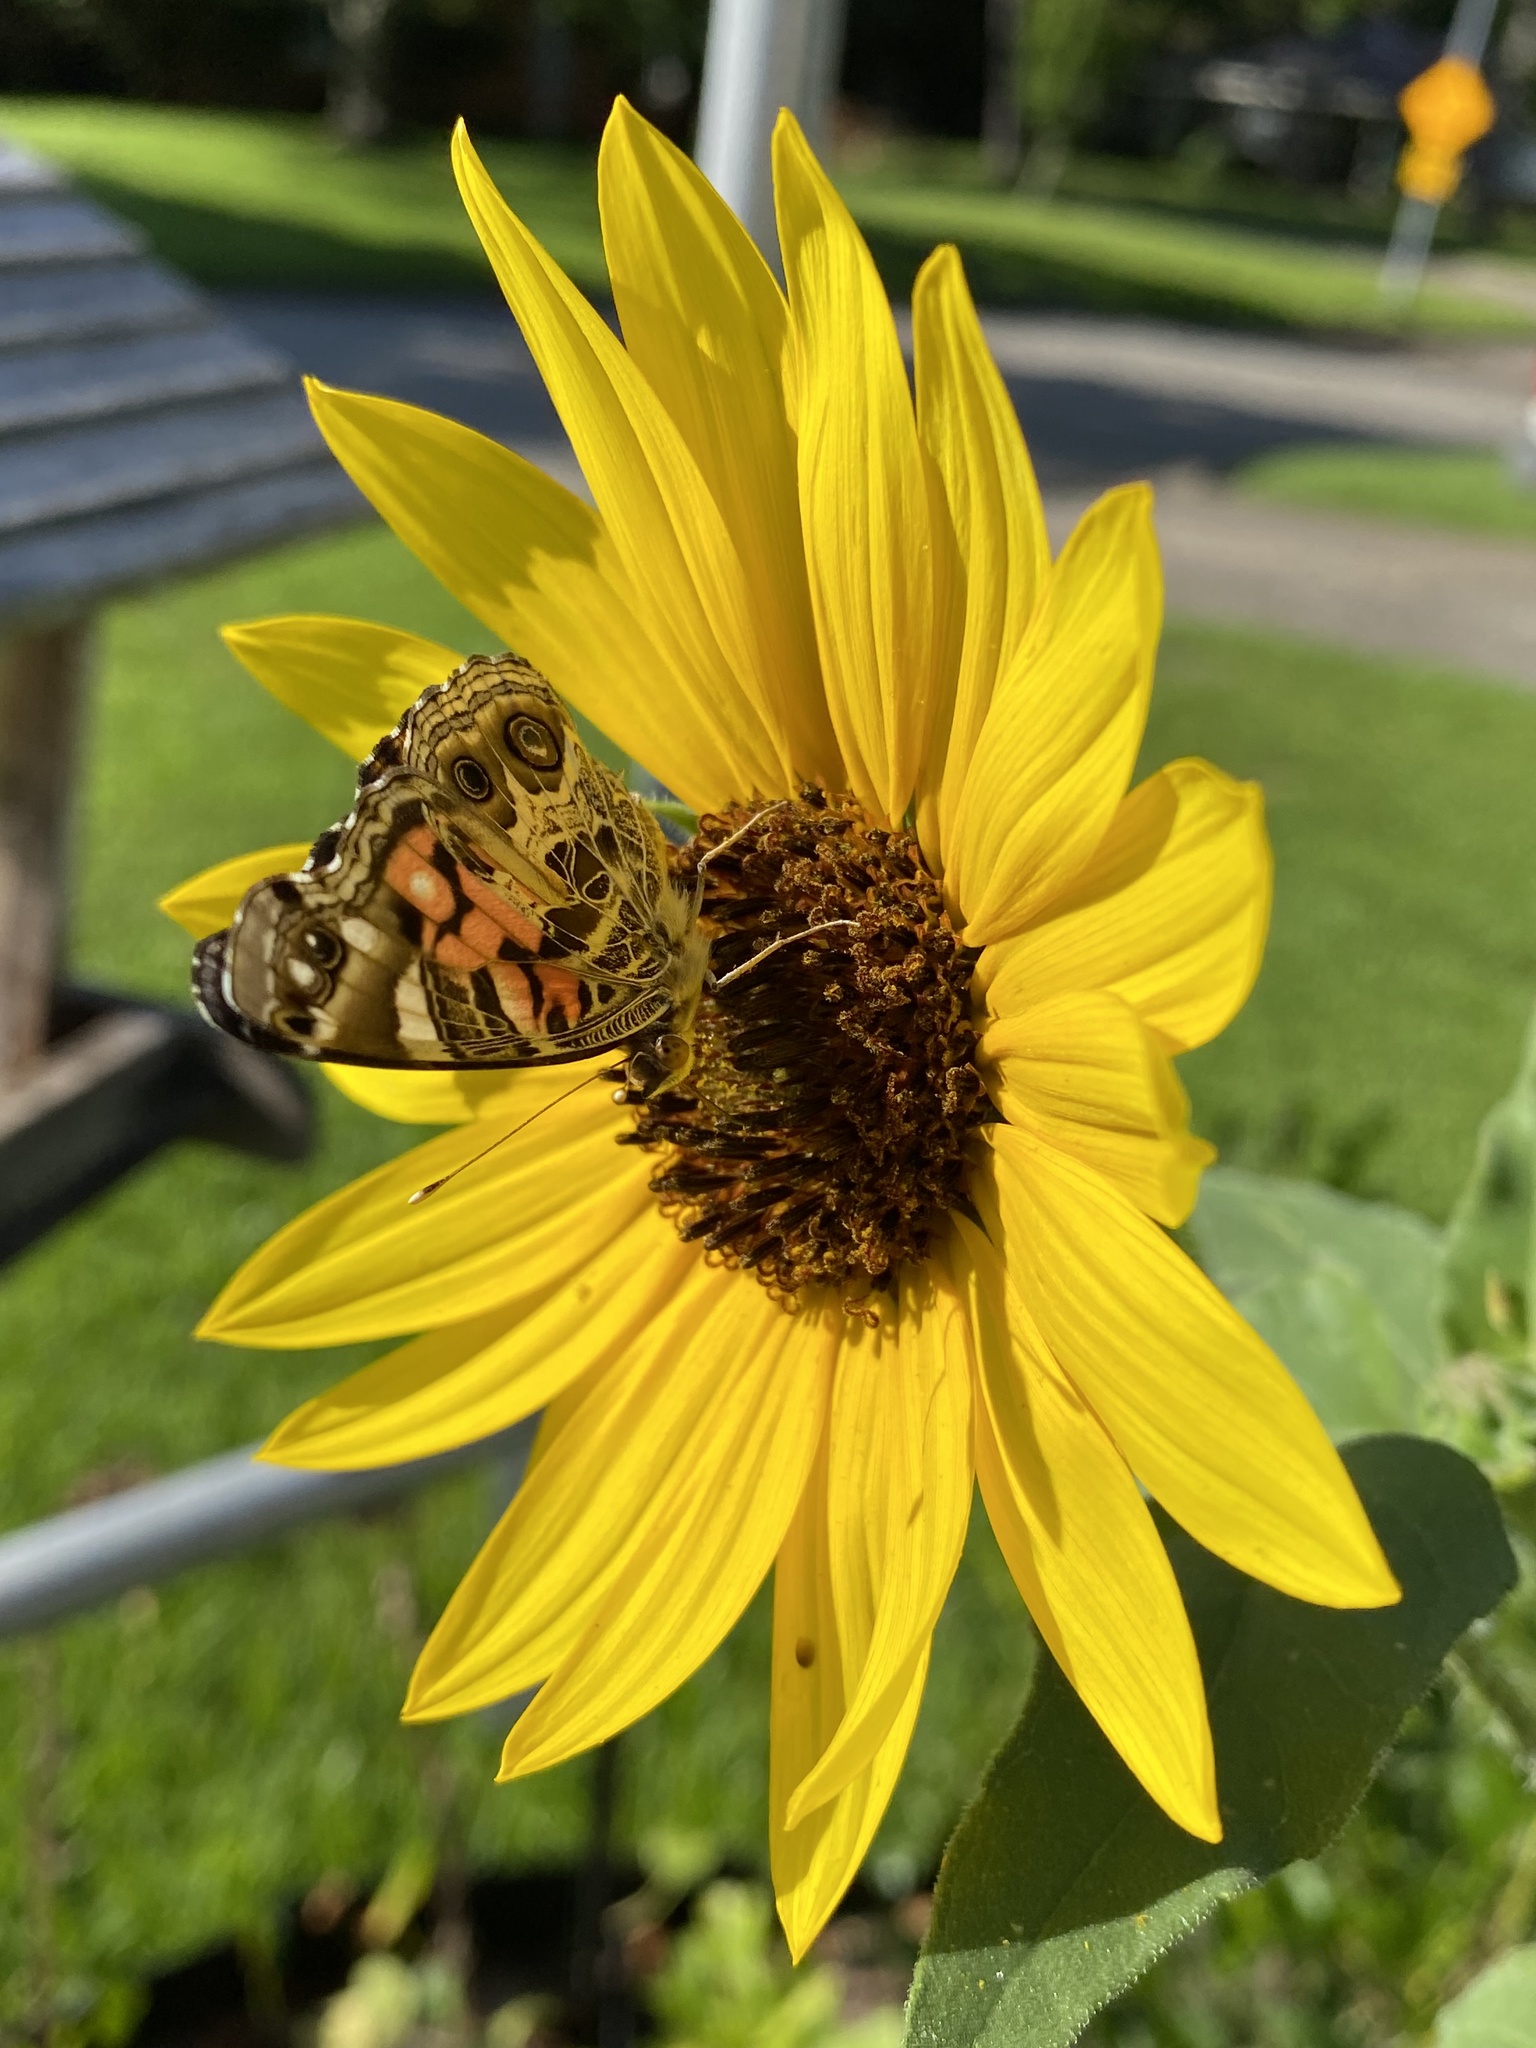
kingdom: Animalia
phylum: Arthropoda
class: Insecta
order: Lepidoptera
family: Nymphalidae
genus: Vanessa
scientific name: Vanessa virginiensis
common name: American lady
